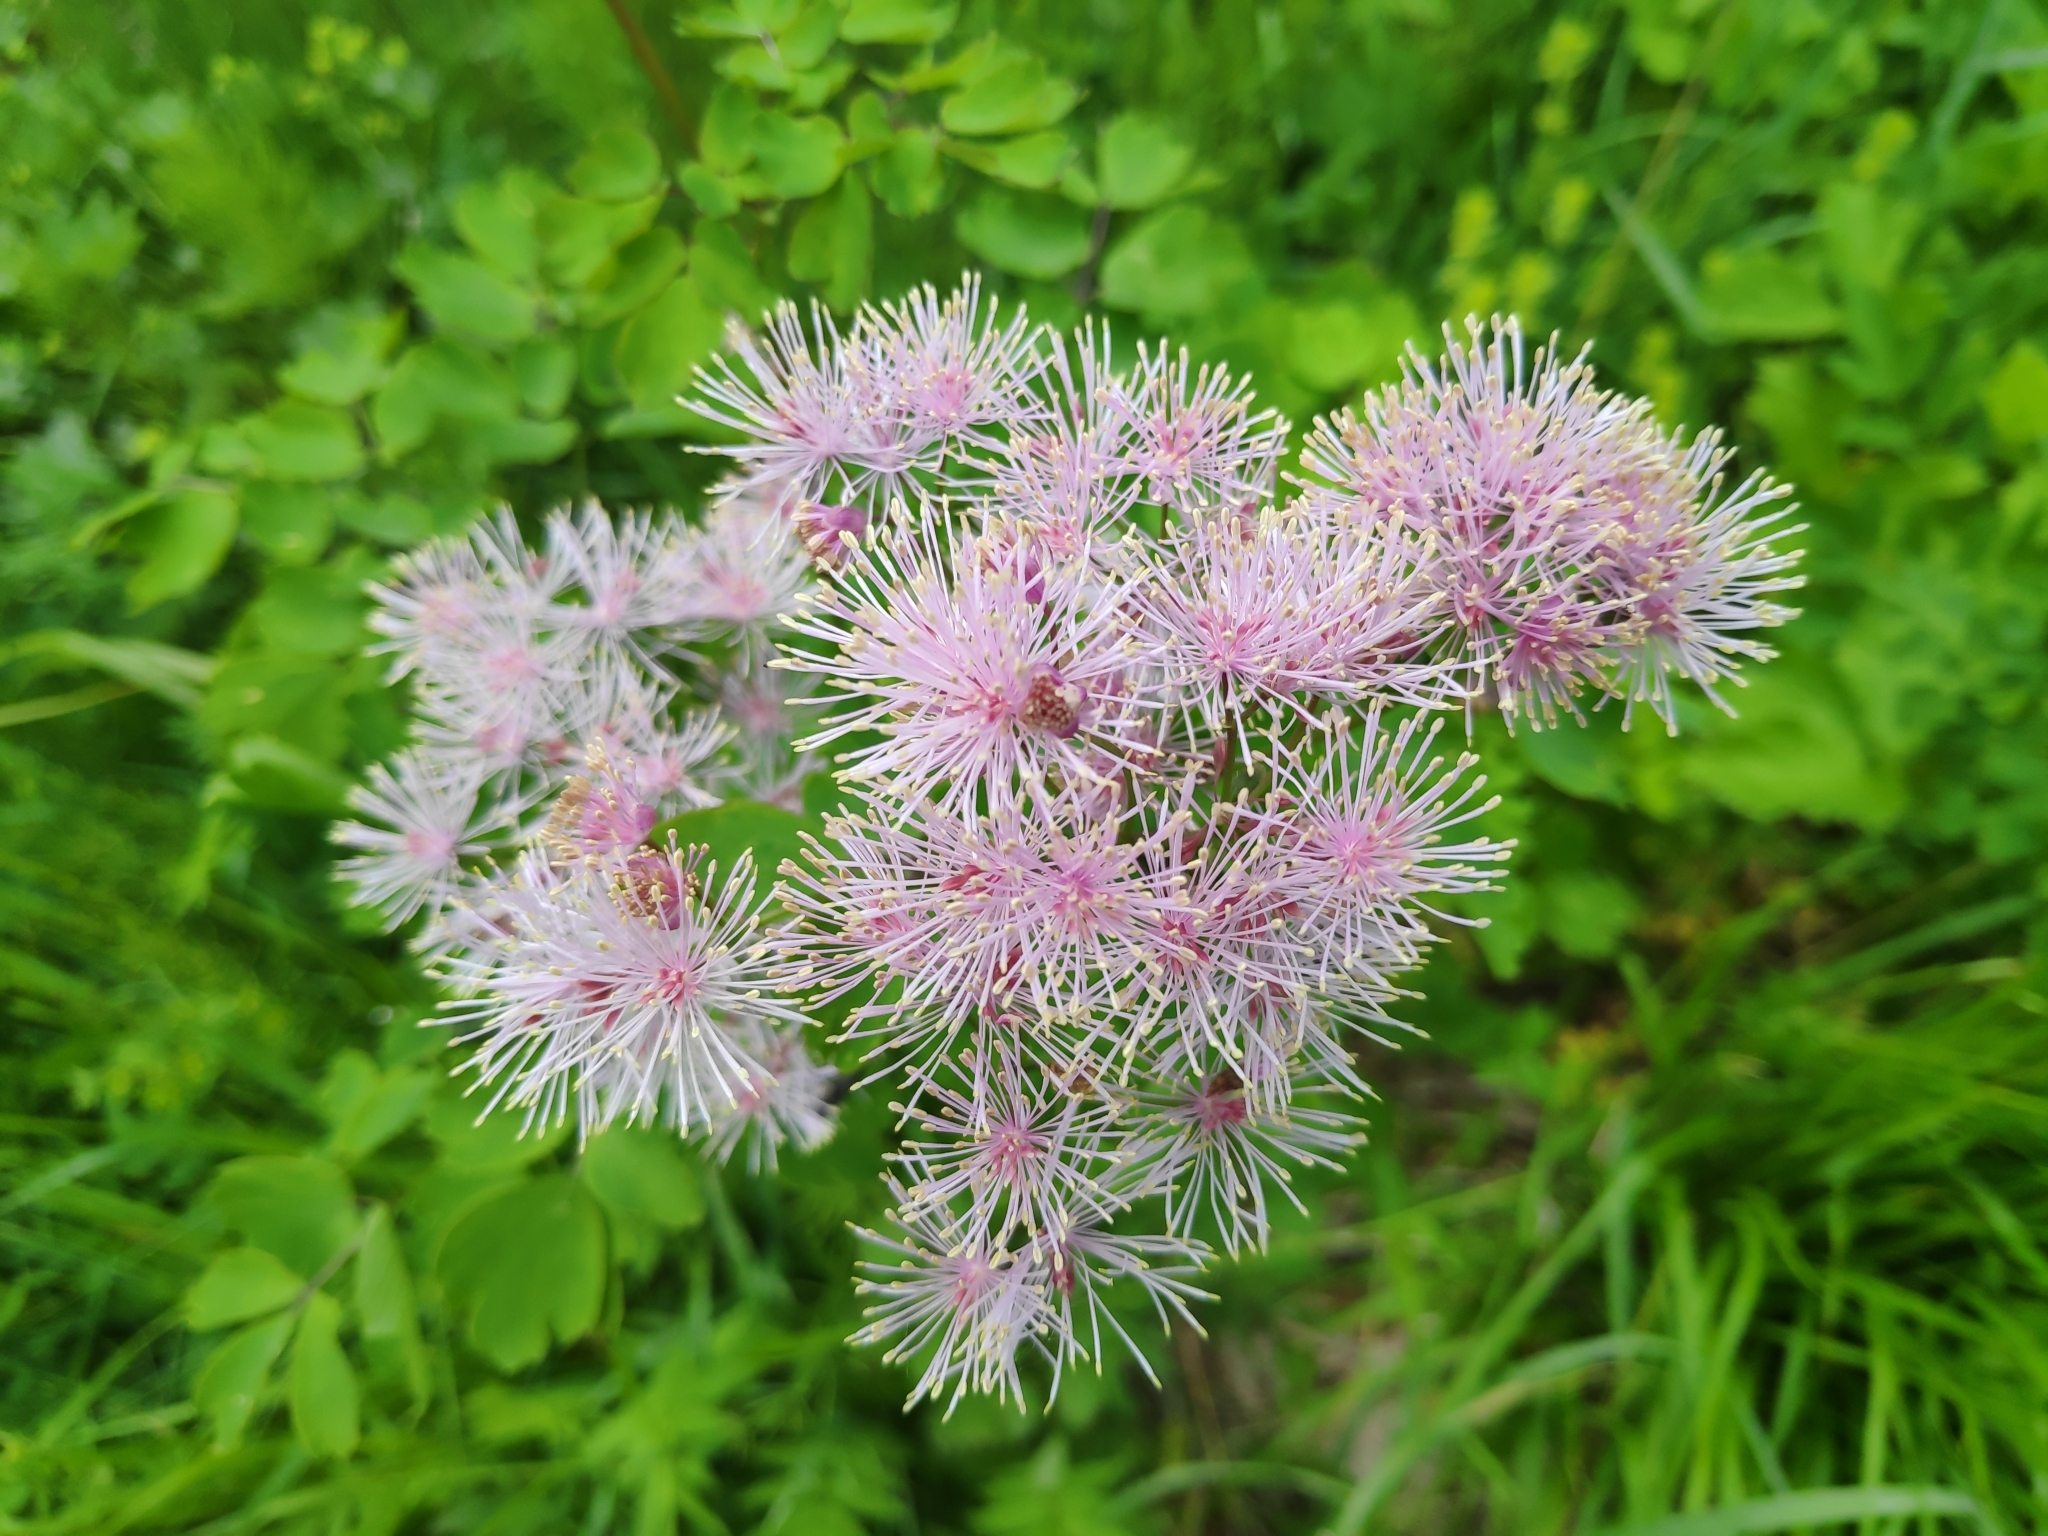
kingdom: Plantae
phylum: Tracheophyta
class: Magnoliopsida
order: Ranunculales
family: Ranunculaceae
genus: Thalictrum
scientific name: Thalictrum aquilegiifolium
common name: French meadow-rue
